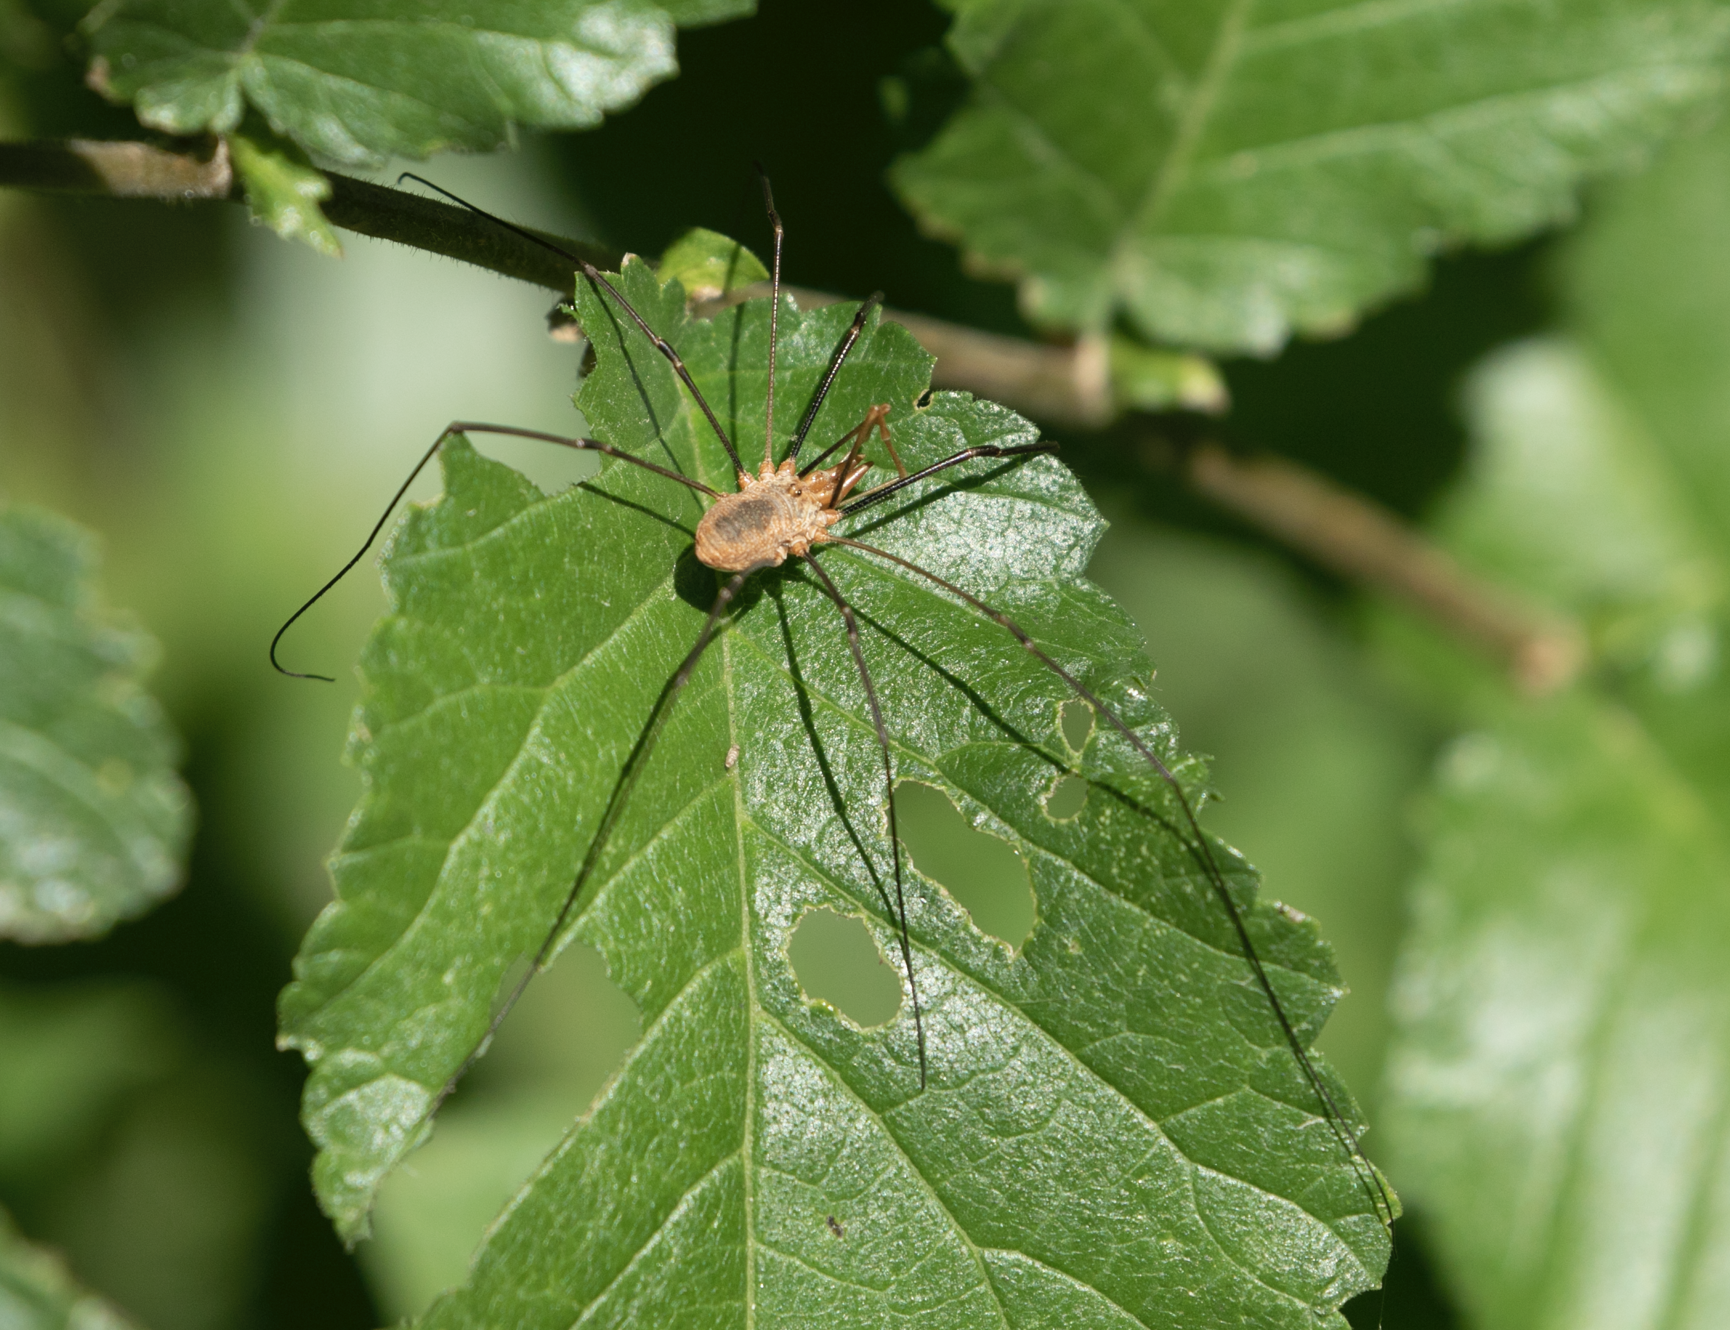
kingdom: Animalia
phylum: Arthropoda
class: Arachnida
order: Opiliones
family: Phalangiidae
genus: Phalangium
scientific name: Phalangium opilio
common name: Daddy longleg
